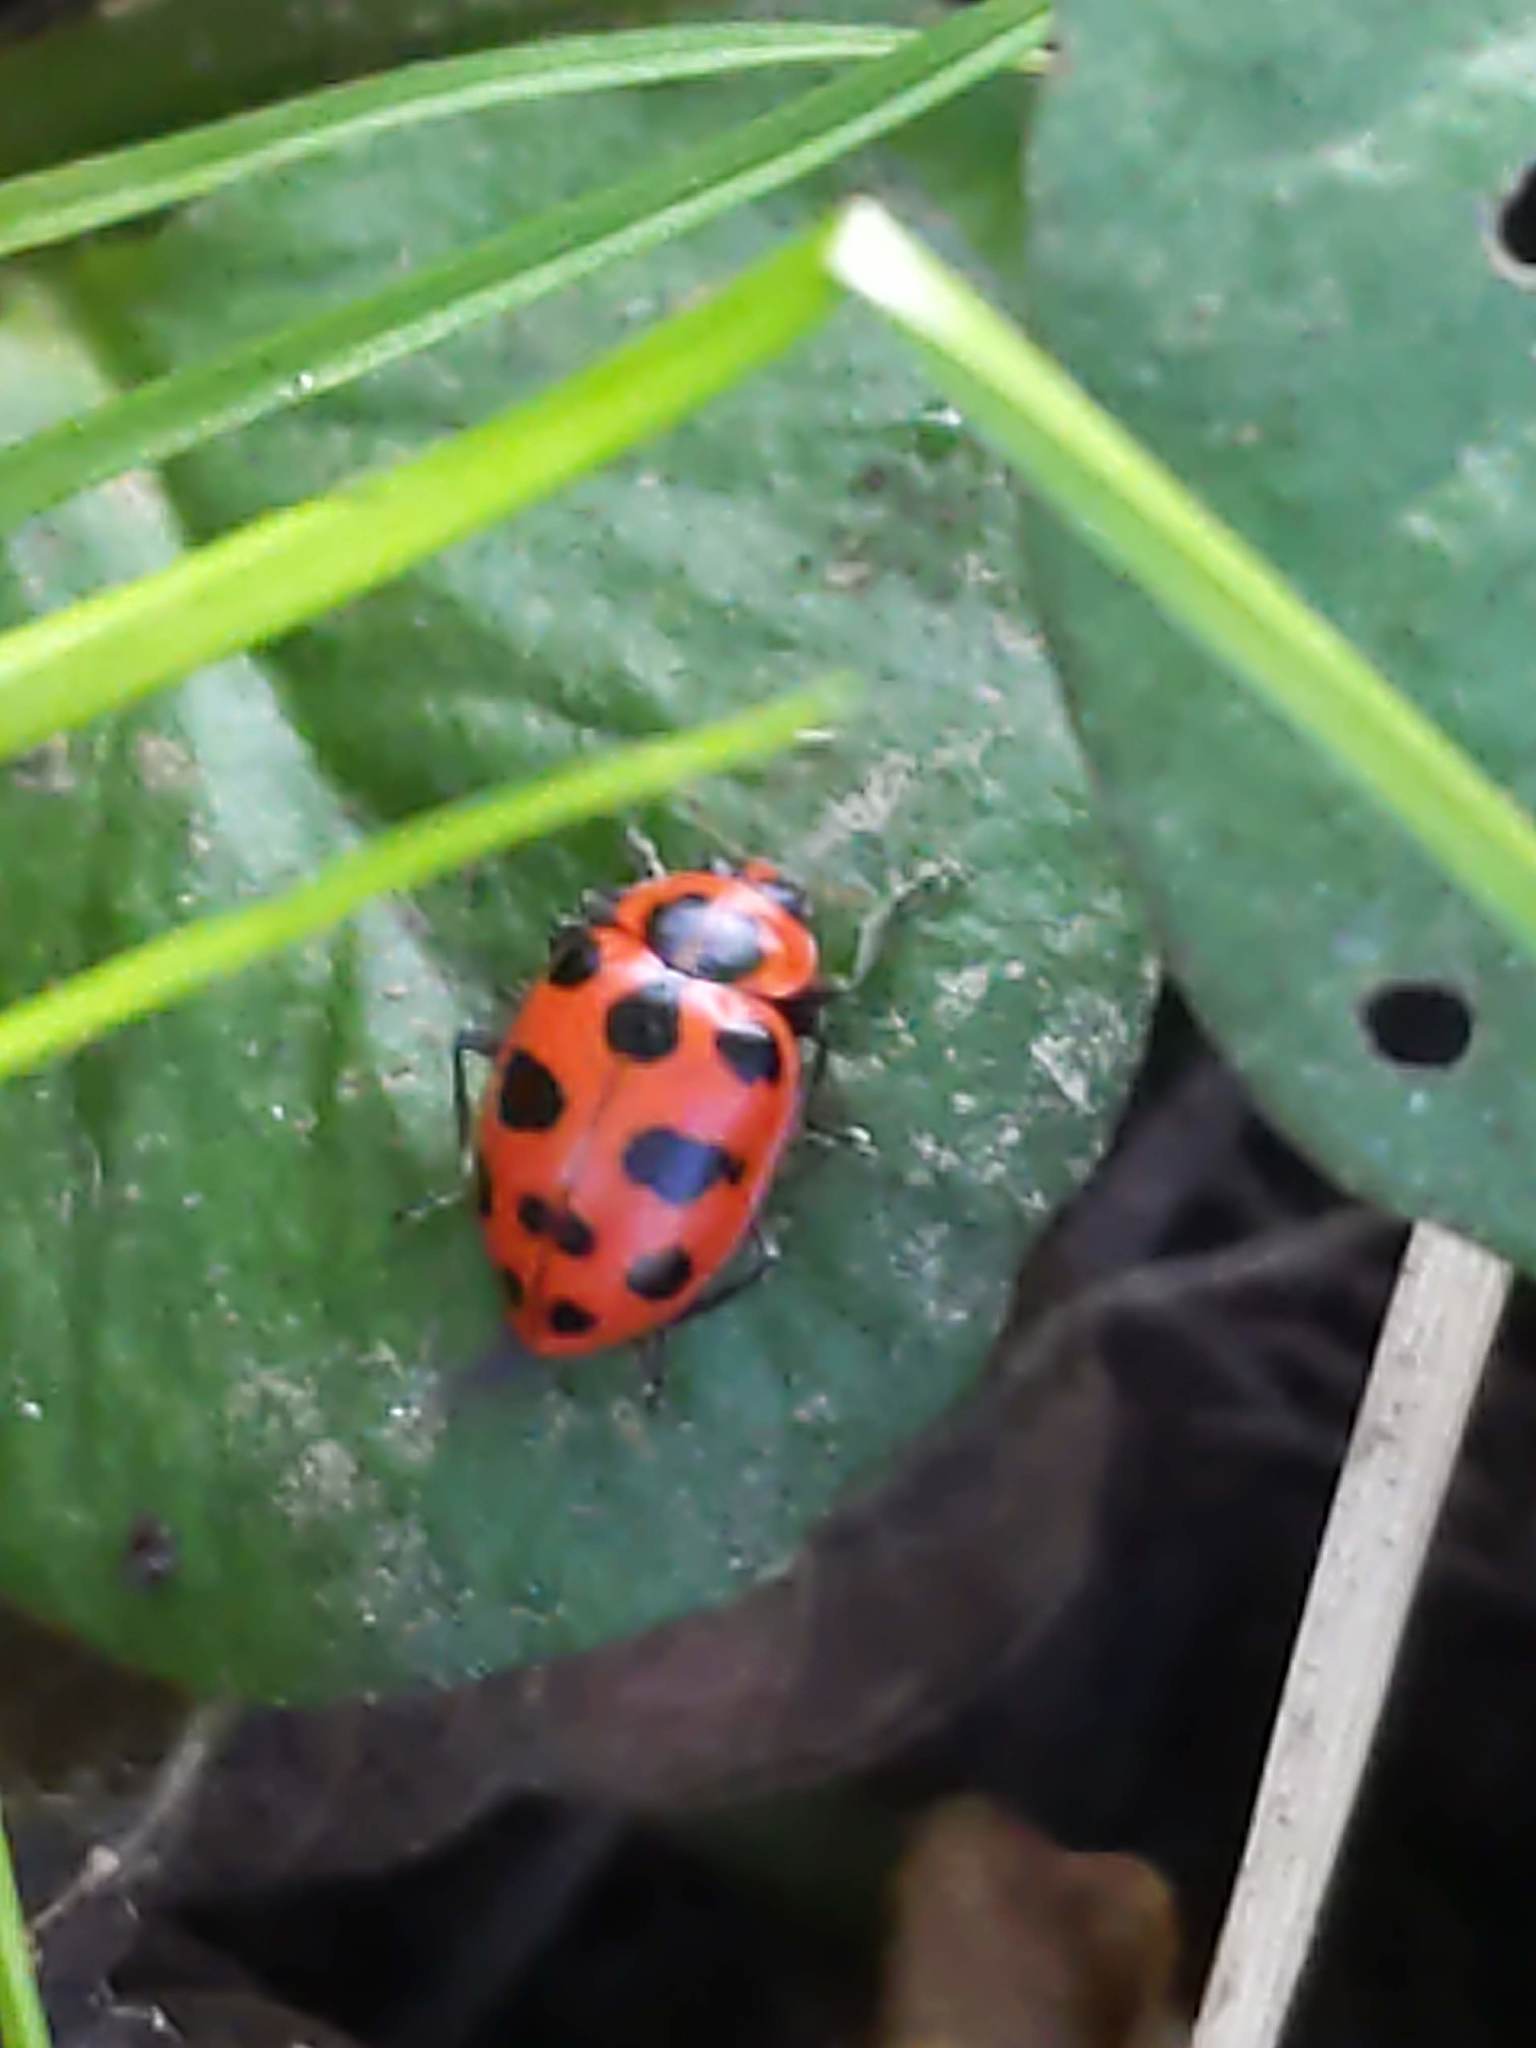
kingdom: Animalia
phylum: Arthropoda
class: Insecta
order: Coleoptera
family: Coccinellidae
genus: Coleomegilla
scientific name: Coleomegilla maculata
